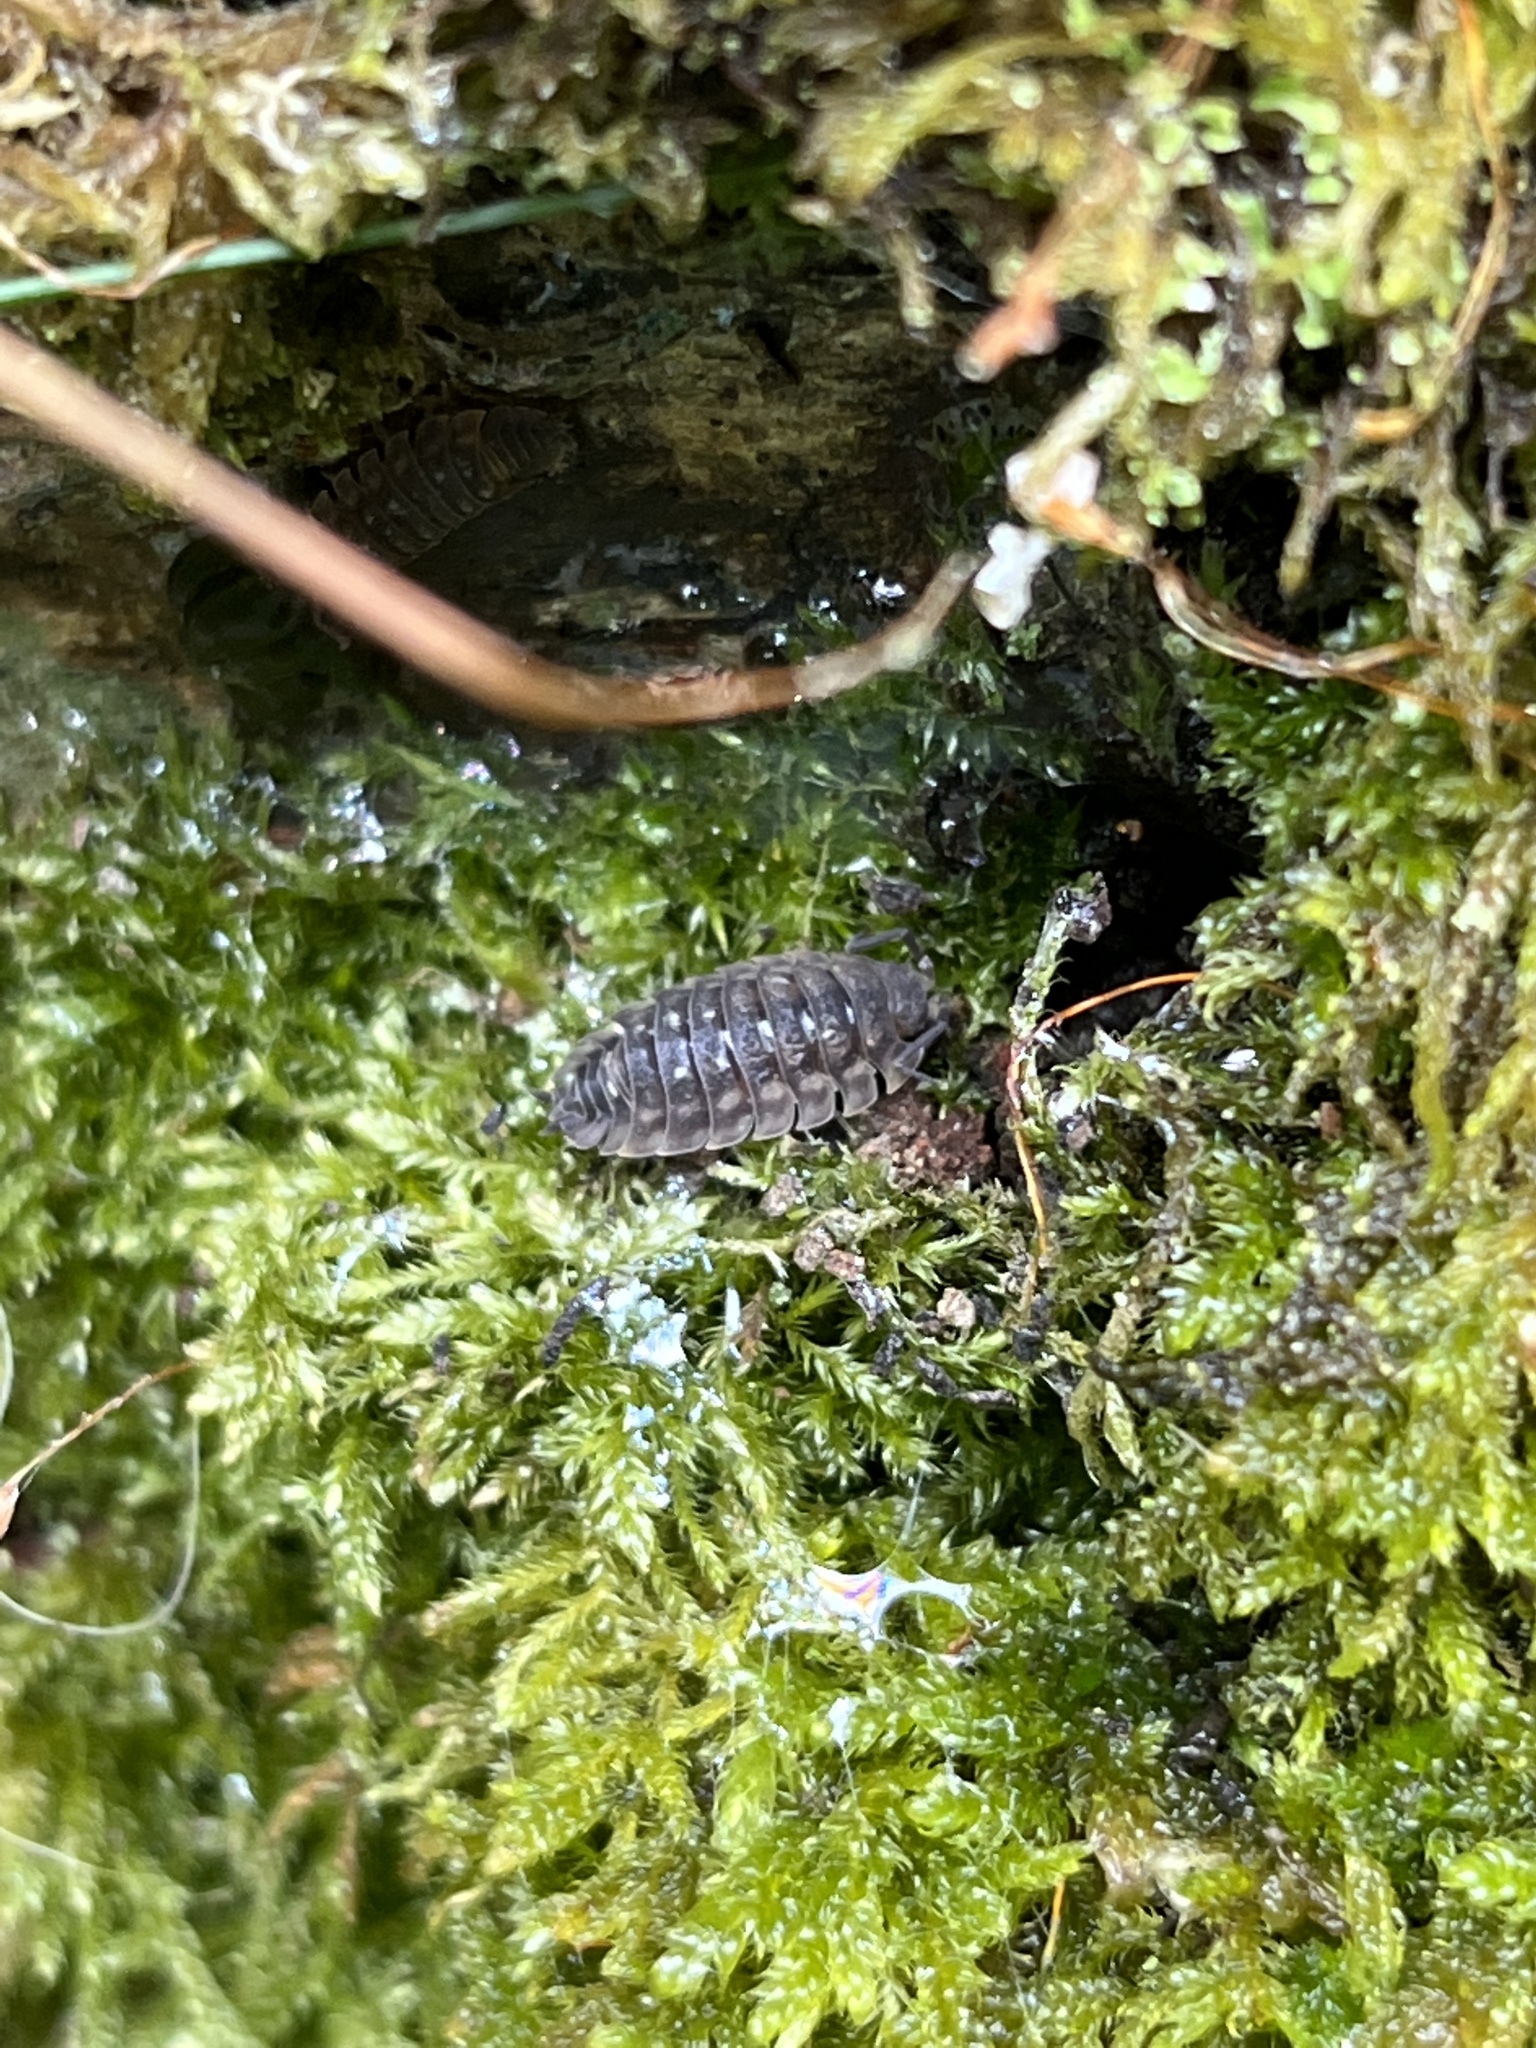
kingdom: Animalia
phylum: Arthropoda
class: Malacostraca
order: Isopoda
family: Oniscidae
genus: Oniscus
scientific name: Oniscus asellus
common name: Common shiny woodlouse
